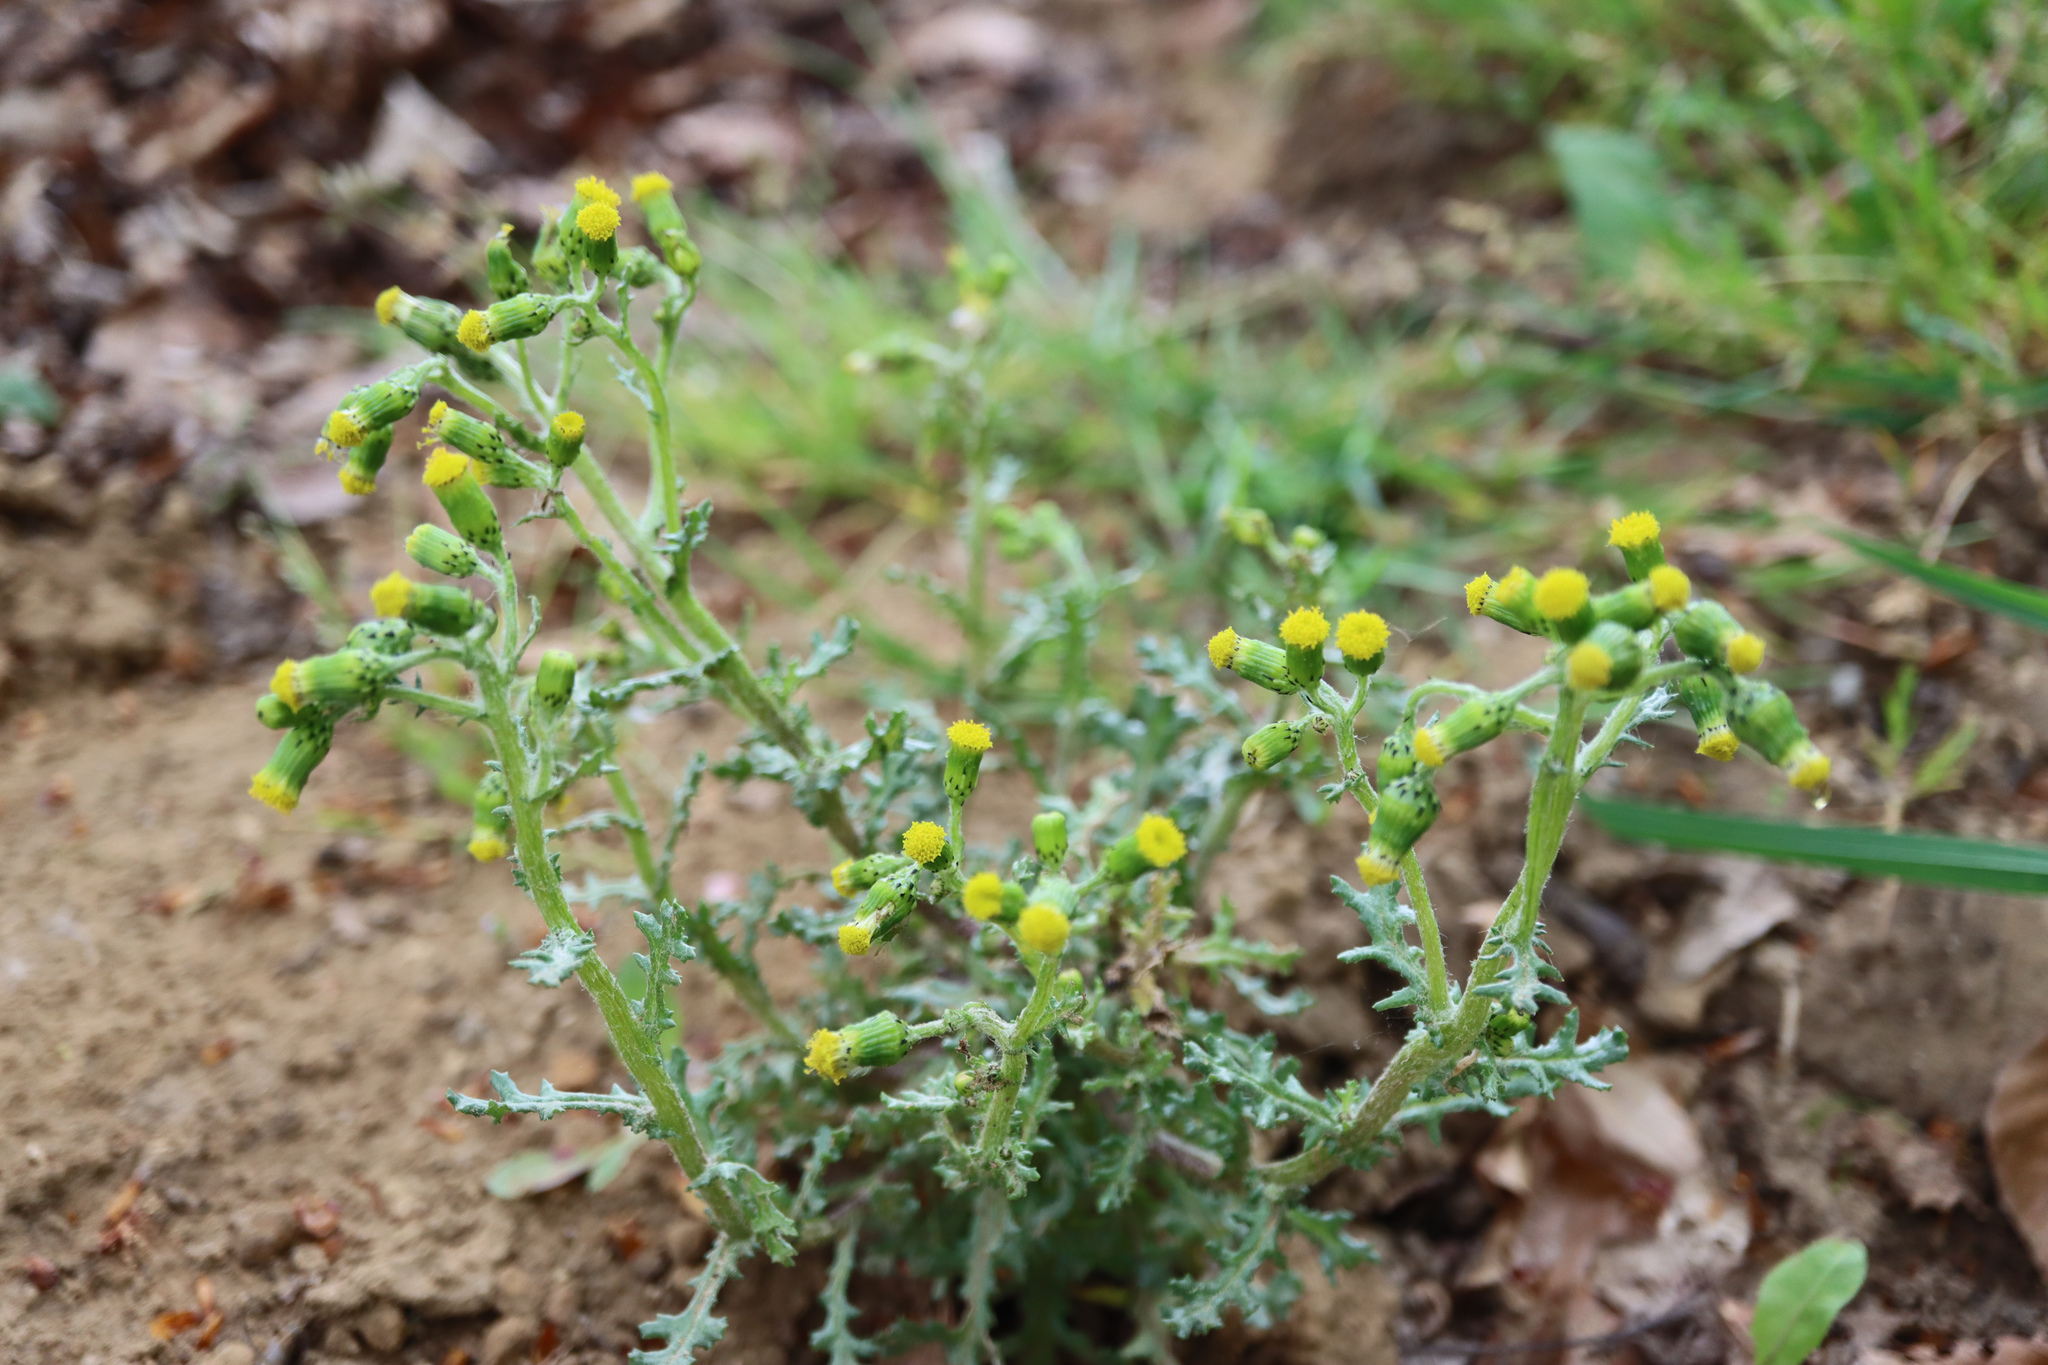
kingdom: Plantae
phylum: Tracheophyta
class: Magnoliopsida
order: Asterales
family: Asteraceae
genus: Senecio
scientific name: Senecio vulgaris
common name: Old-man-in-the-spring
